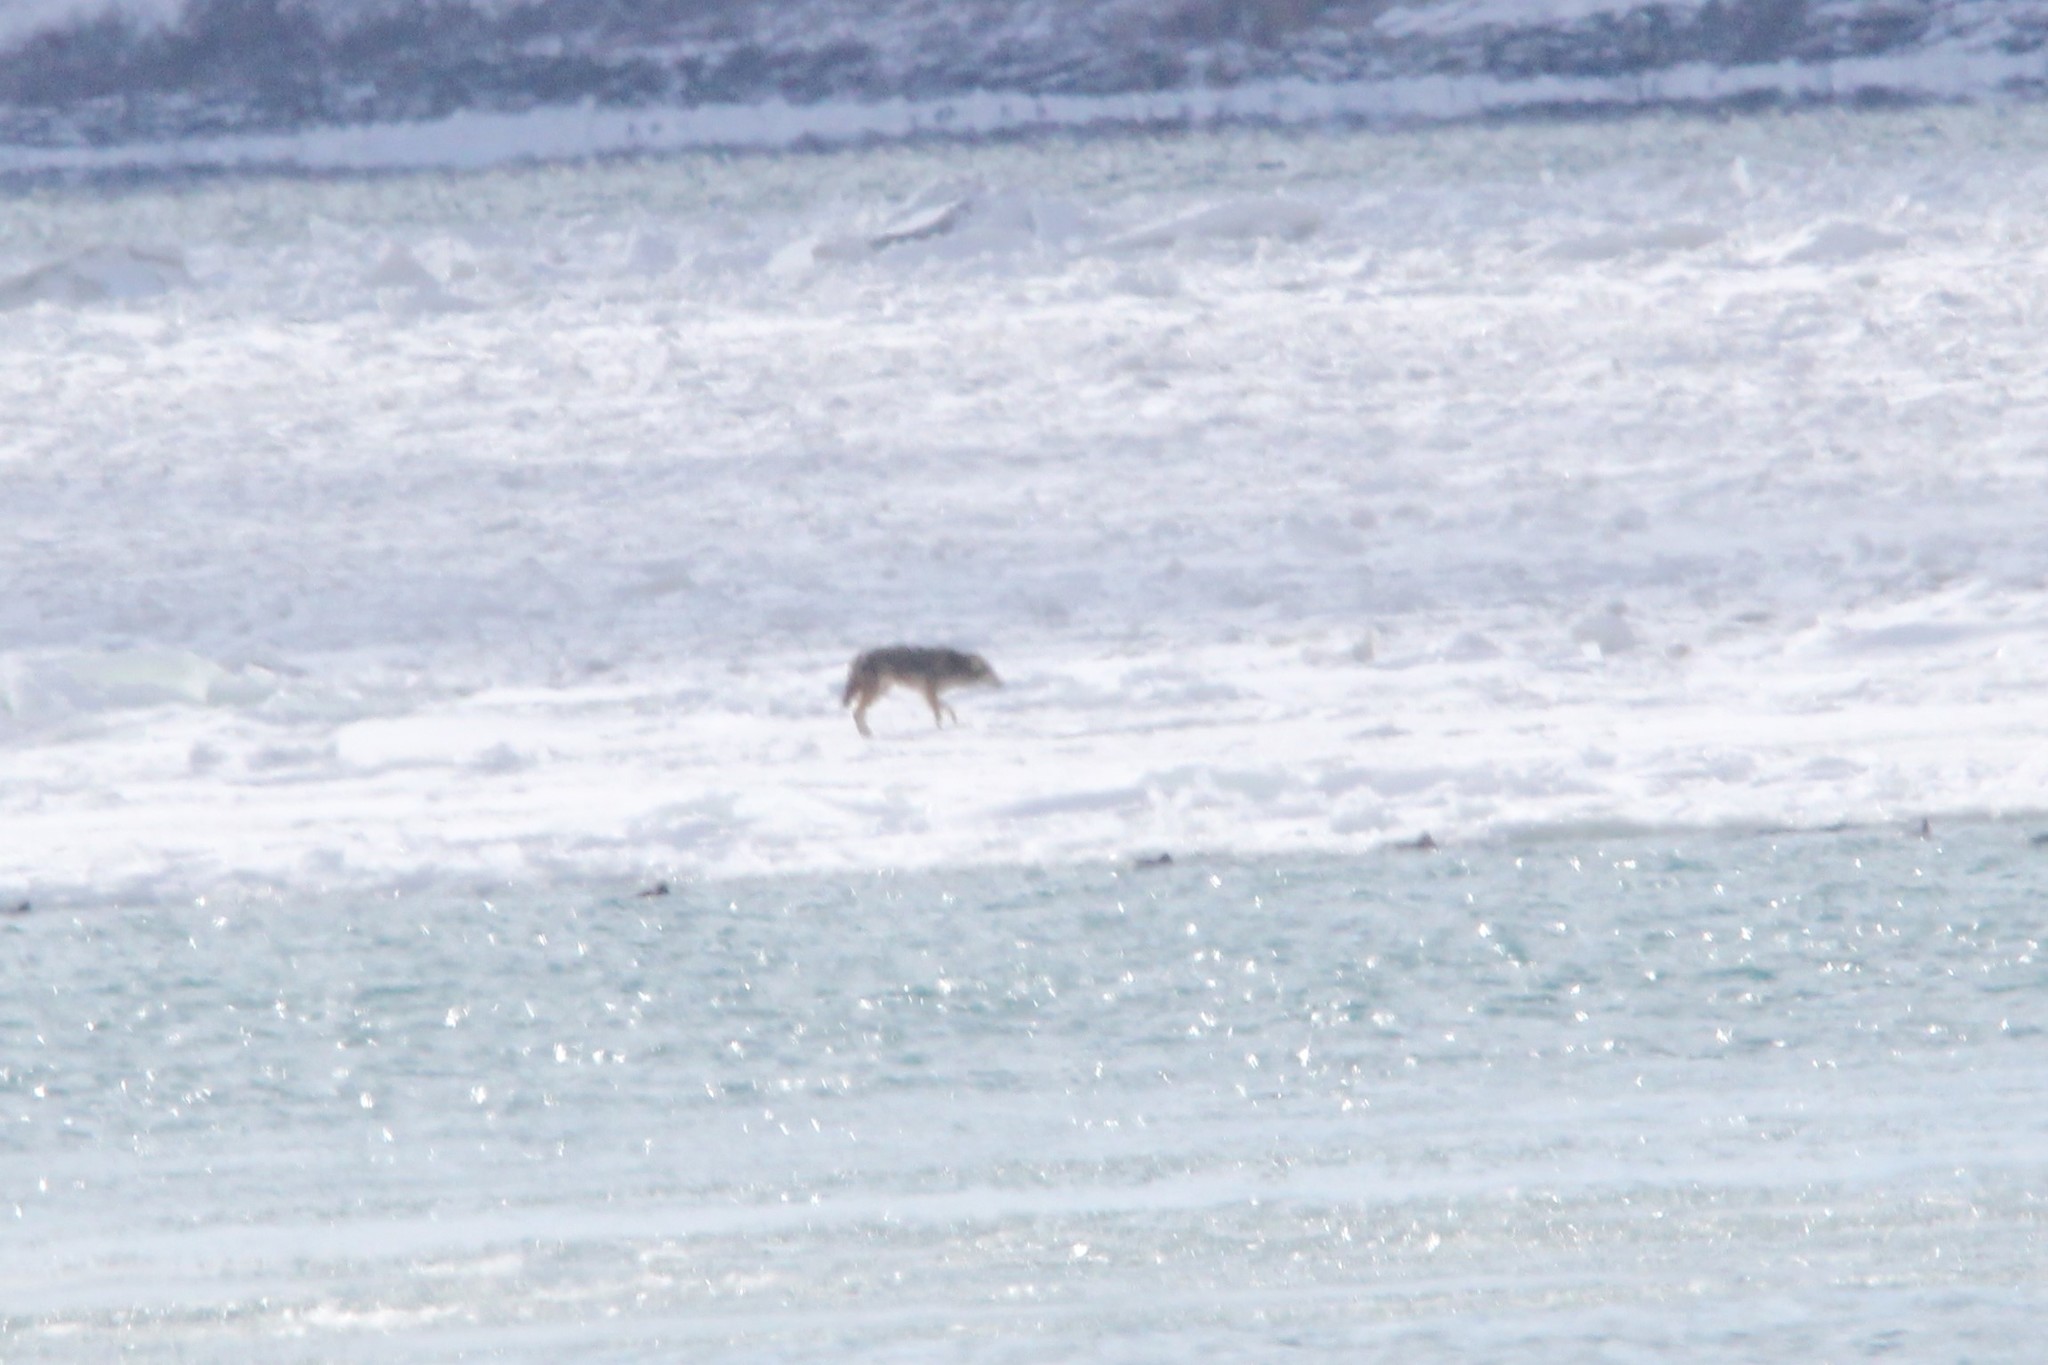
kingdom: Animalia
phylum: Chordata
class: Mammalia
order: Carnivora
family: Canidae
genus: Canis
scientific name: Canis latrans
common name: Coyote
